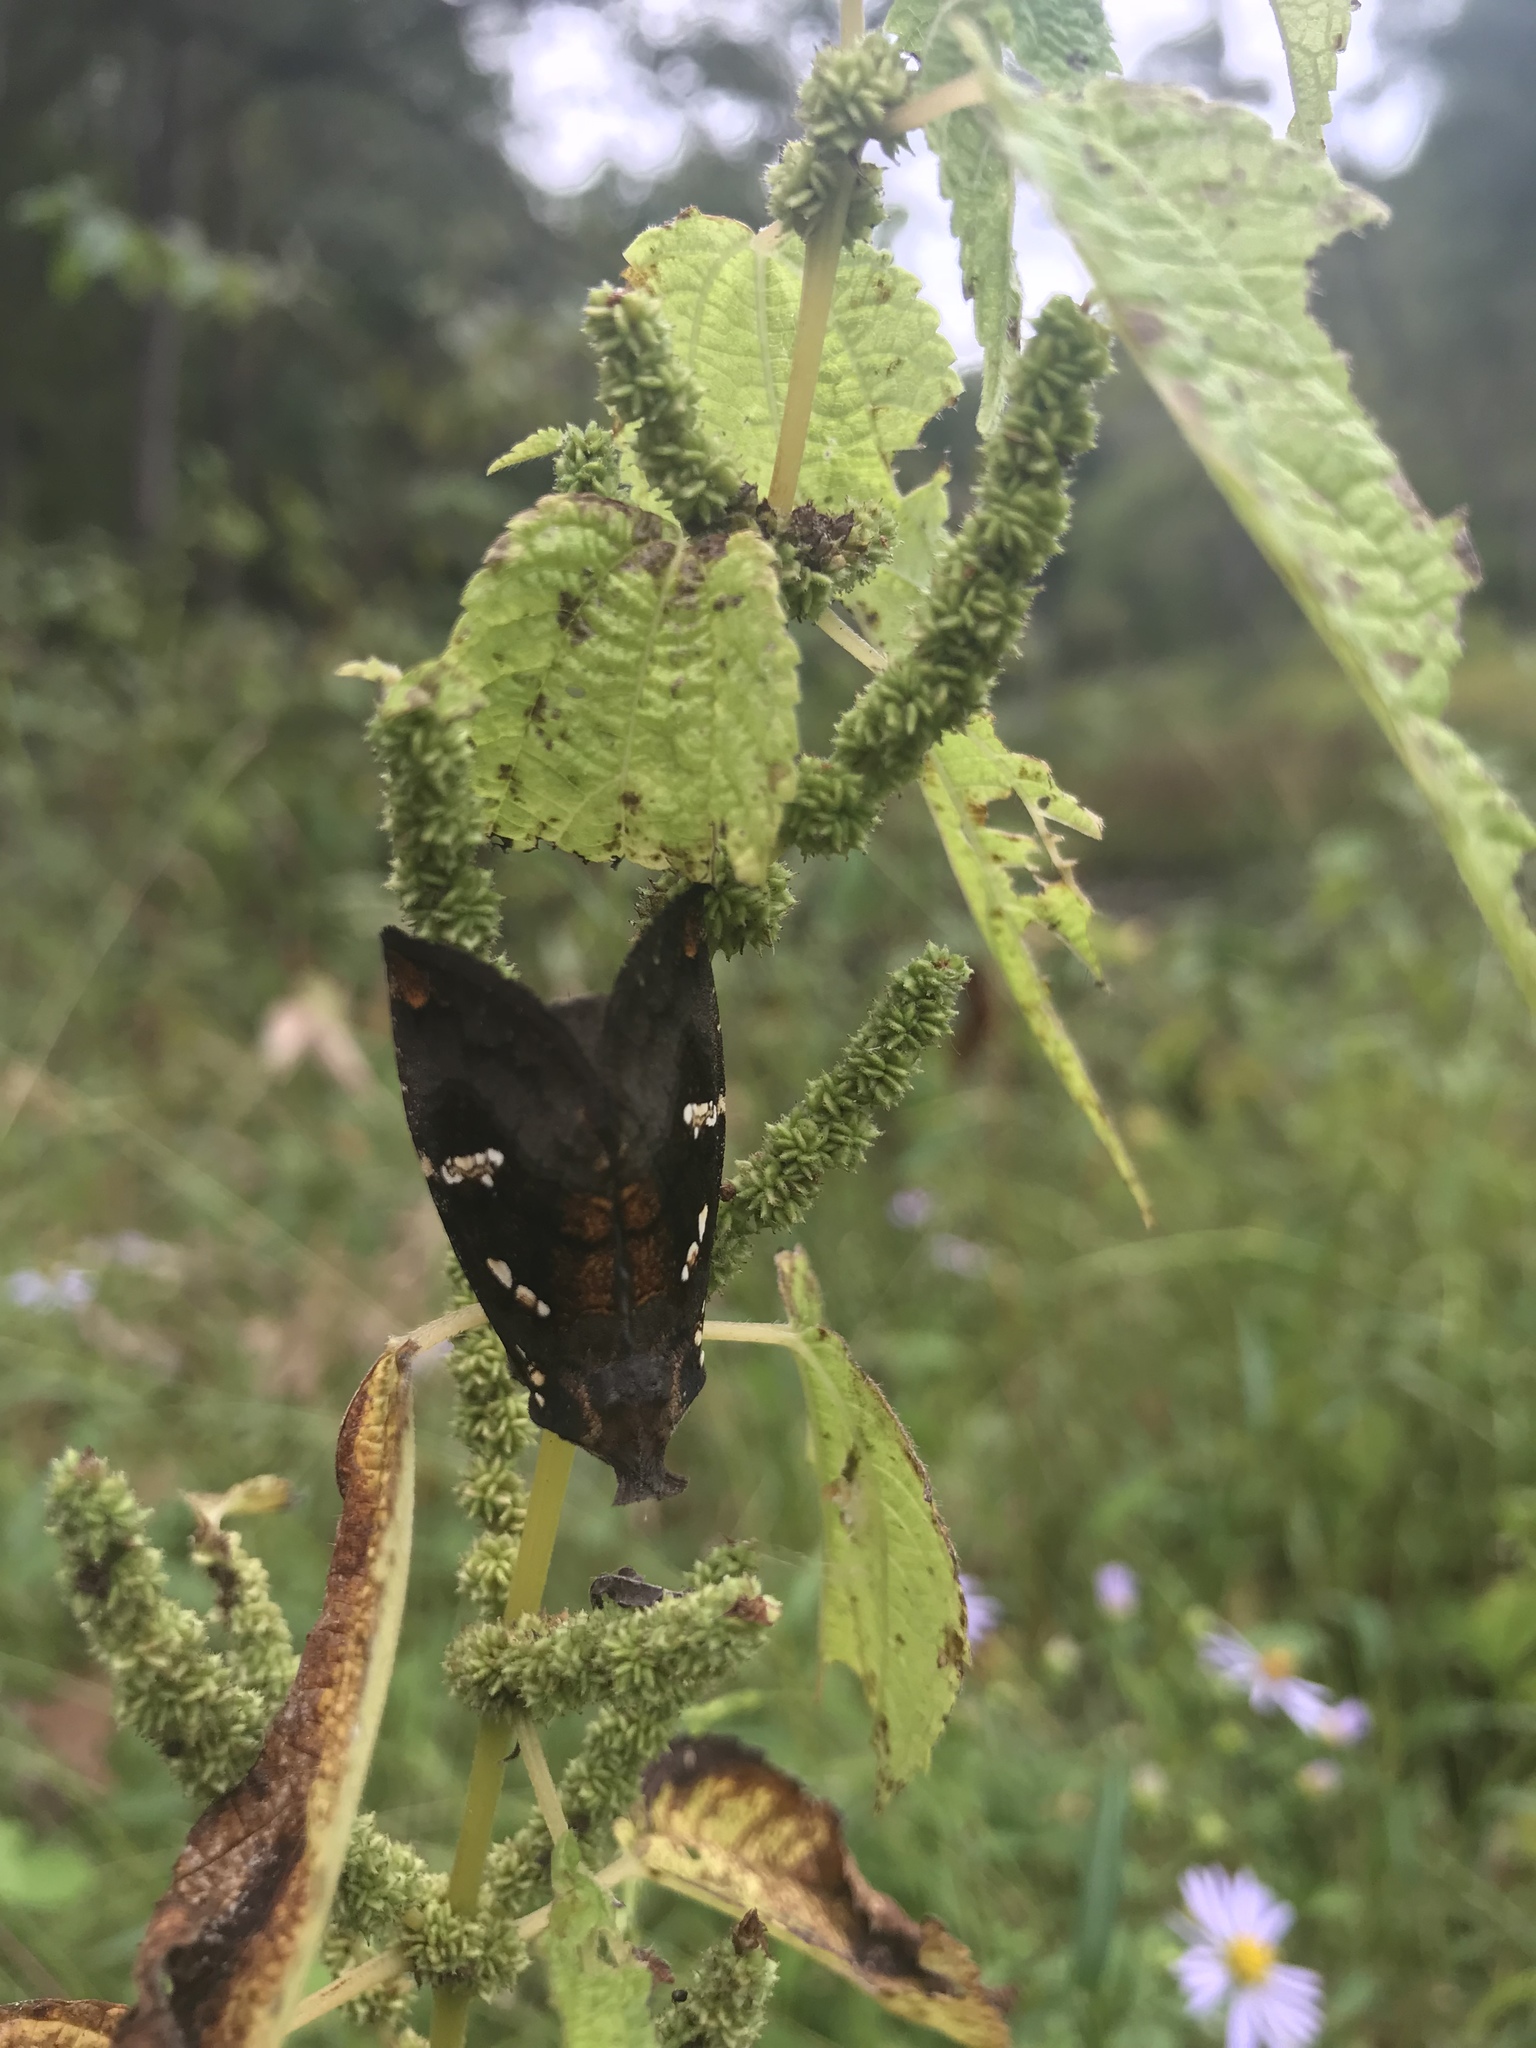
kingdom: Animalia
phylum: Arthropoda
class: Insecta
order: Lepidoptera
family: Noctuidae
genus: Papaipema
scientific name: Papaipema cerussata
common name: Ironweed borer moth
